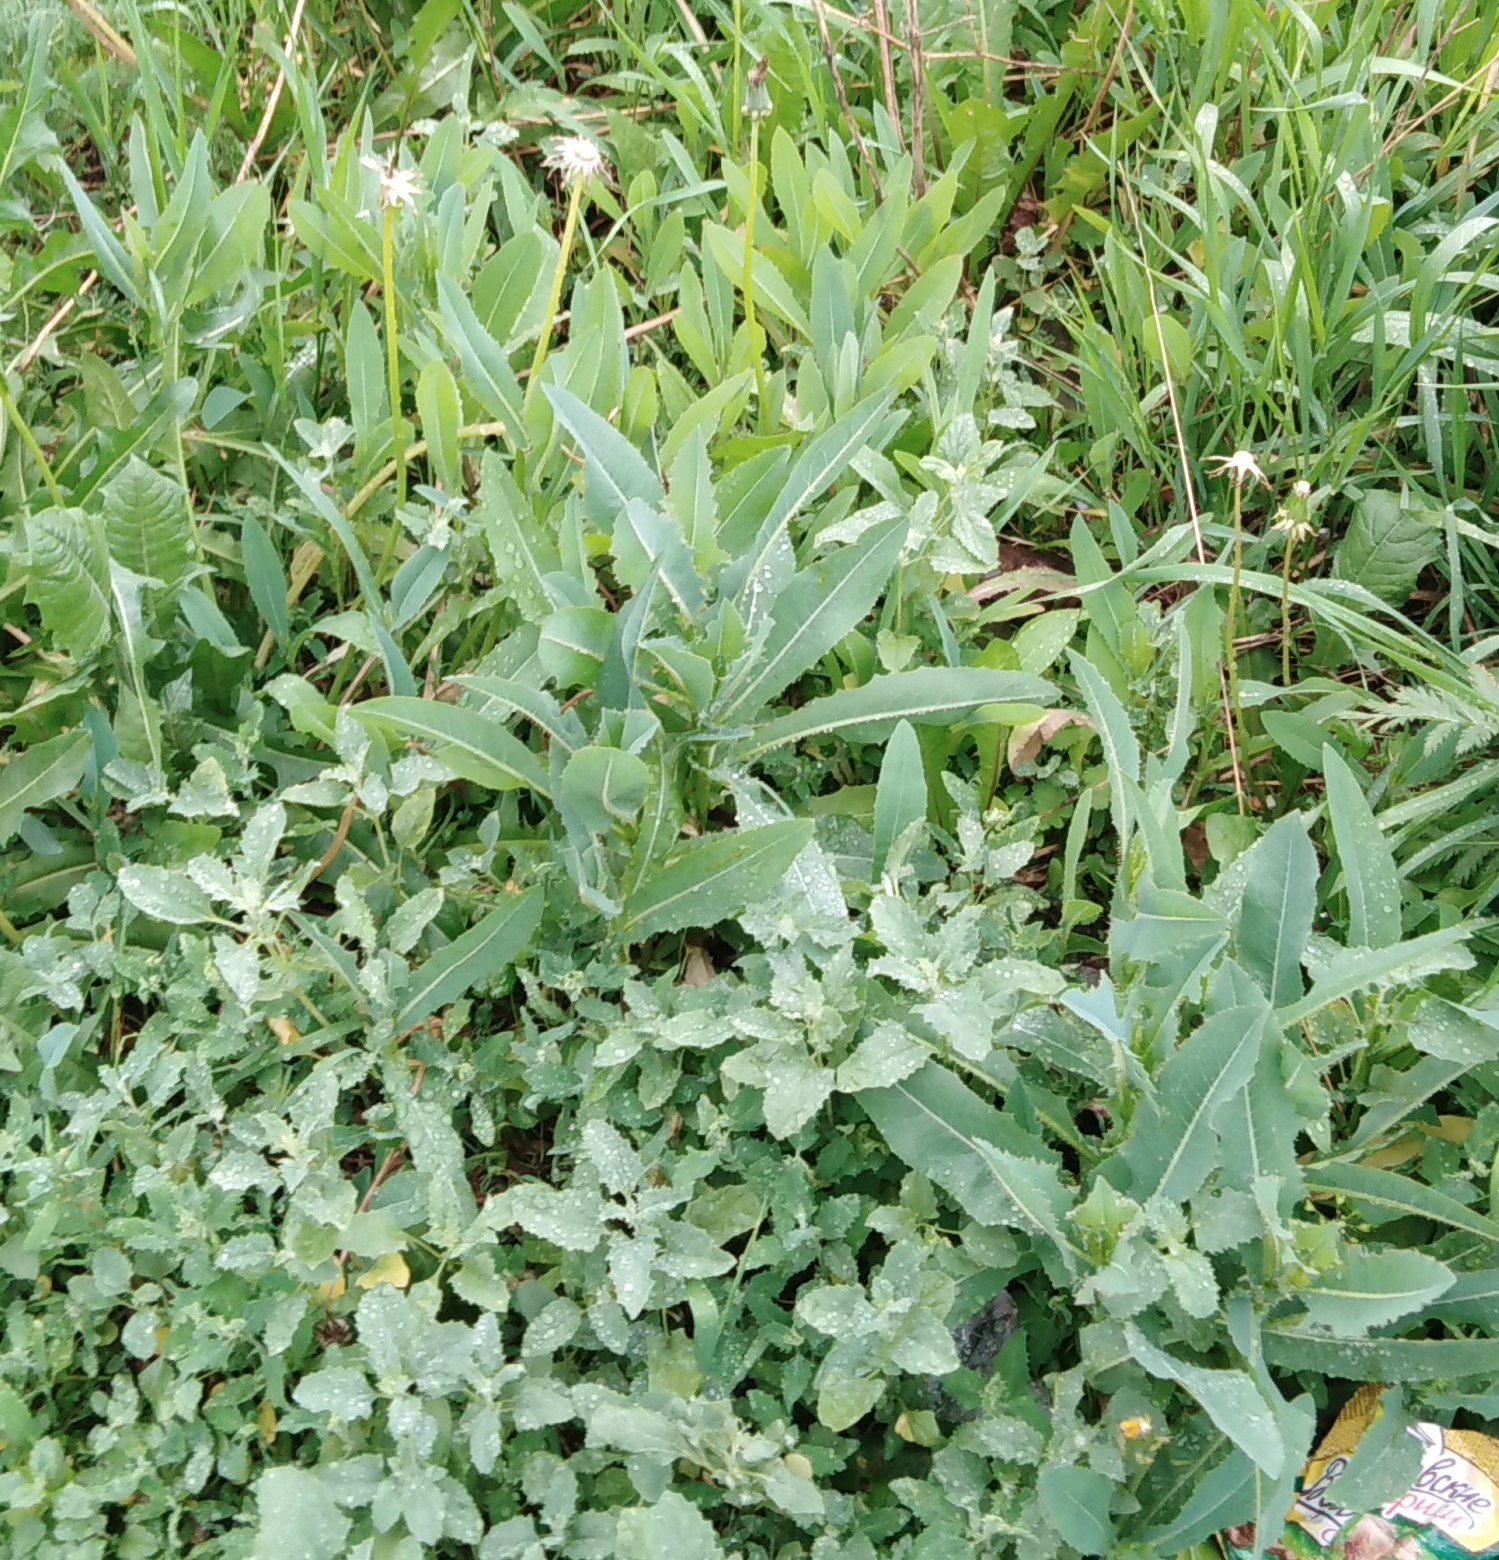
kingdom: Plantae
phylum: Tracheophyta
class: Magnoliopsida
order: Asterales
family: Asteraceae
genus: Lactuca
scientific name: Lactuca serriola
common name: Prickly lettuce
